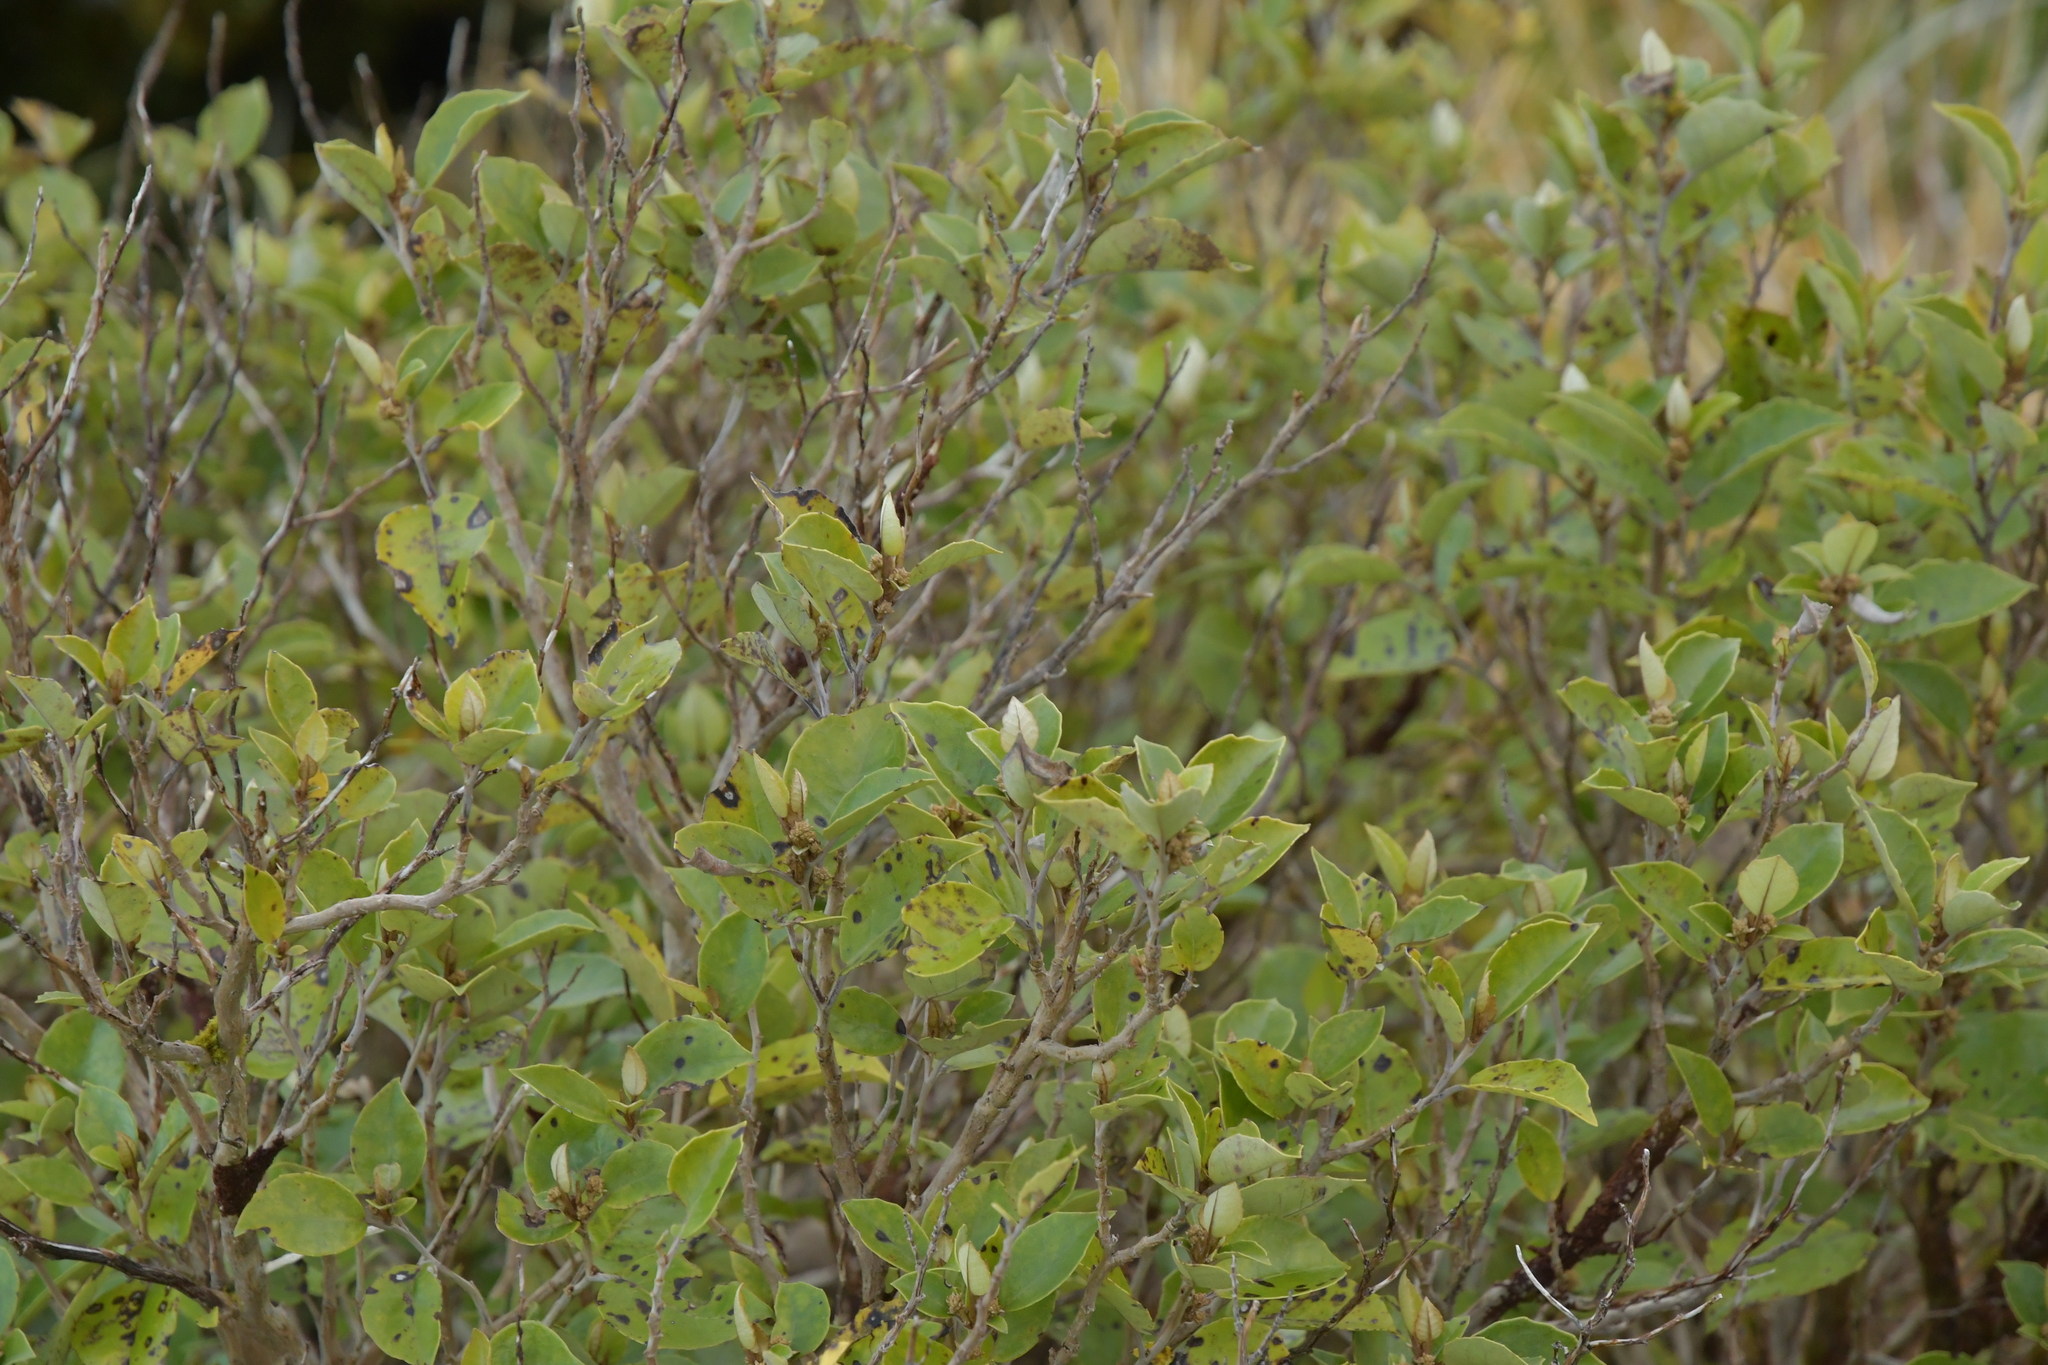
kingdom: Plantae
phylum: Tracheophyta
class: Magnoliopsida
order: Asterales
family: Asteraceae
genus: Olearia
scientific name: Olearia arborescens
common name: Glossy tree daisy
